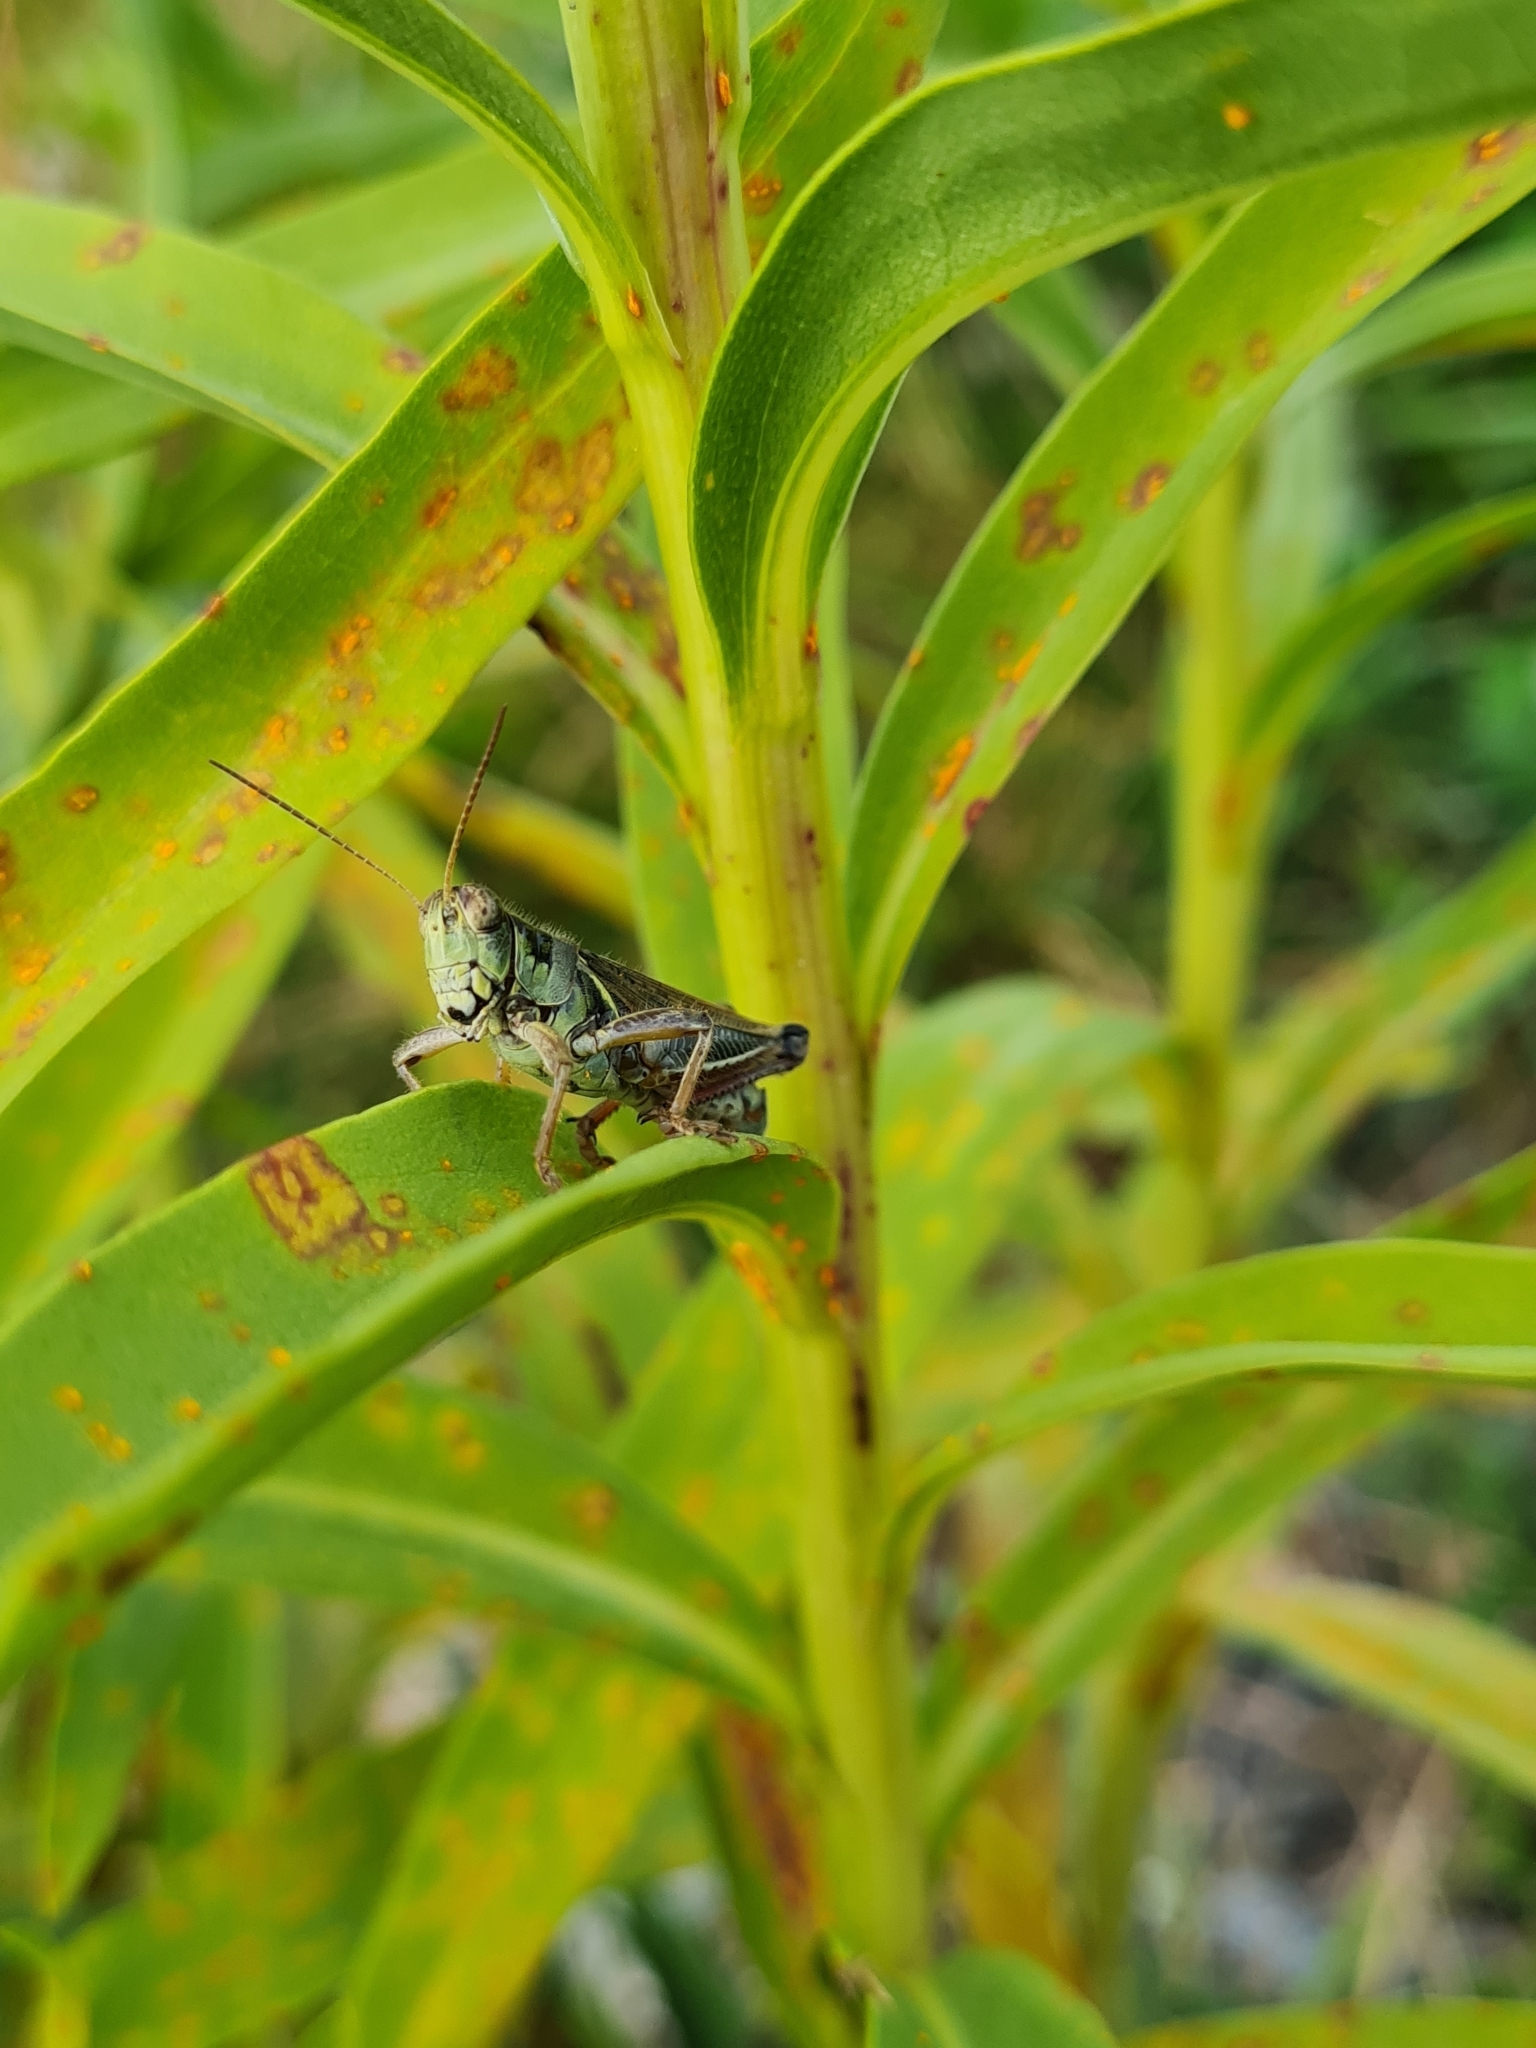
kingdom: Animalia
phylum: Arthropoda
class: Insecta
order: Orthoptera
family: Acrididae
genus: Melanoplus
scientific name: Melanoplus femurrubrum
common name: Red-legged grasshopper
